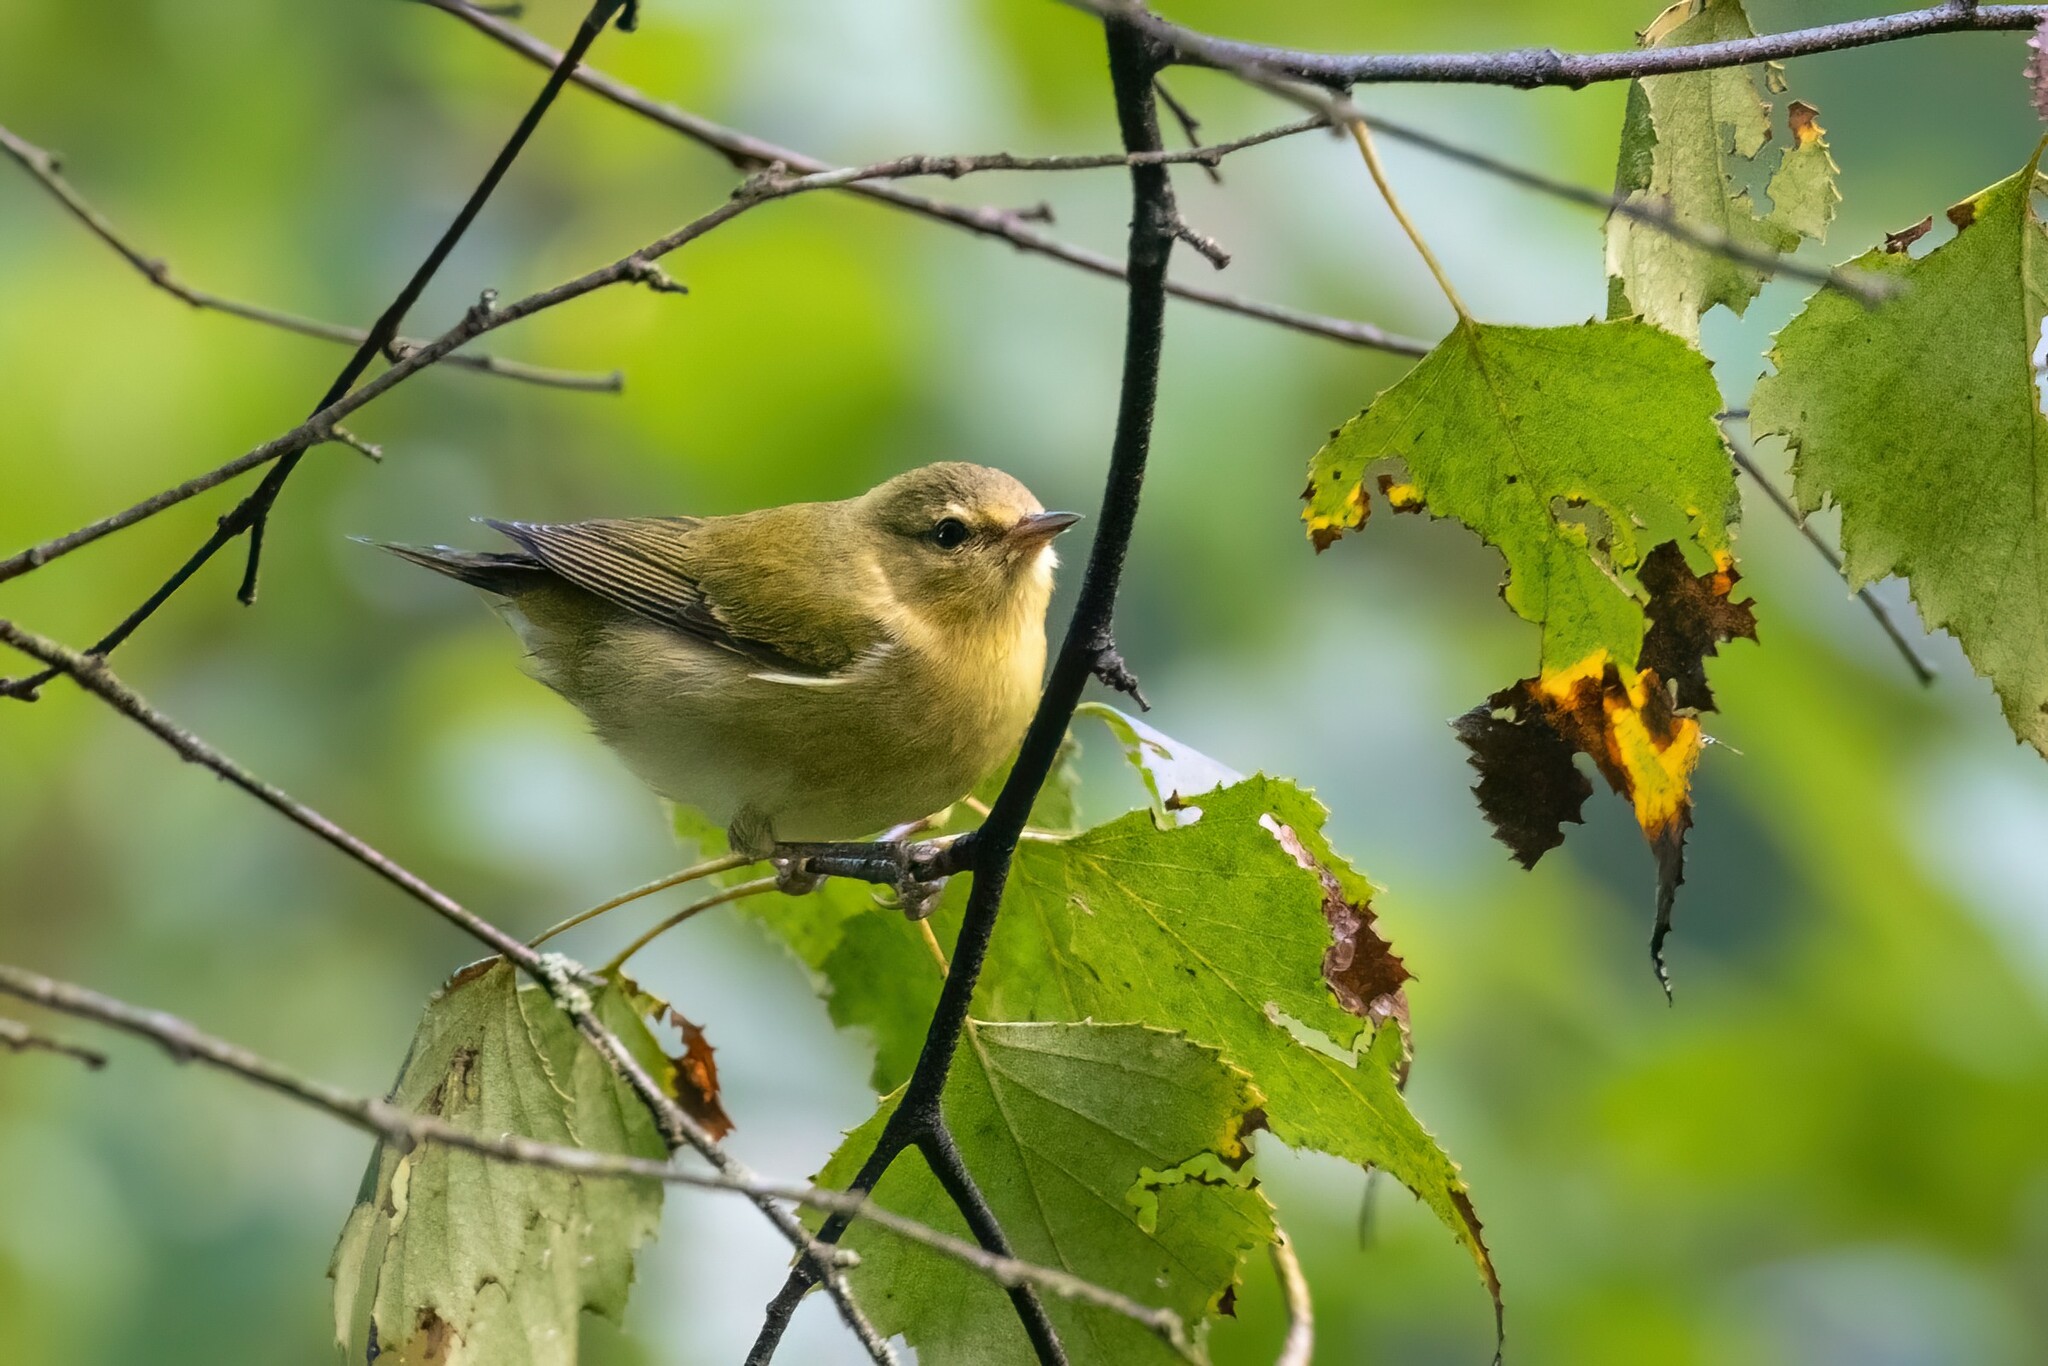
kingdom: Animalia
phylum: Chordata
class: Aves
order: Passeriformes
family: Parulidae
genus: Leiothlypis
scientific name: Leiothlypis peregrina
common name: Tennessee warbler
